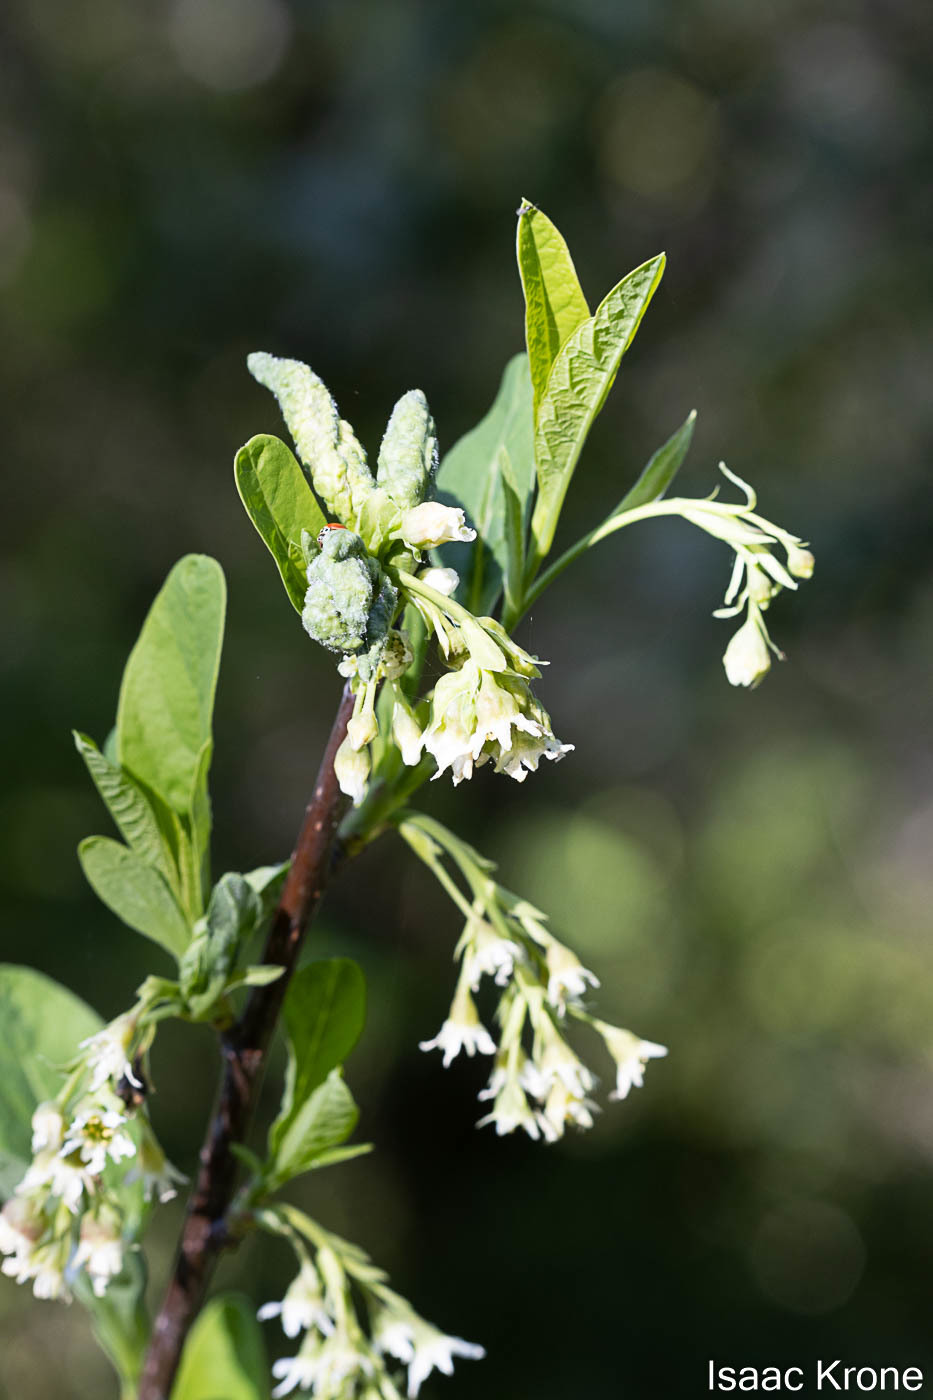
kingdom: Plantae
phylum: Tracheophyta
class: Magnoliopsida
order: Rosales
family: Rosaceae
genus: Oemleria
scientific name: Oemleria cerasiformis
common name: Osoberry
